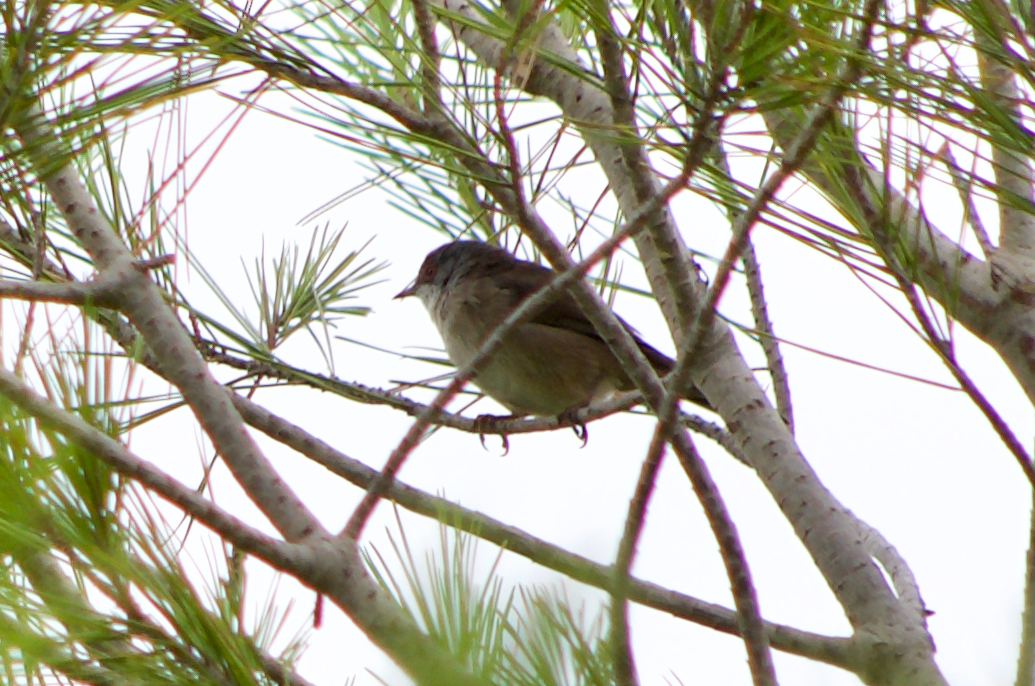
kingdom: Animalia
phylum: Chordata
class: Aves
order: Passeriformes
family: Sylviidae
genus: Curruca
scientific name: Curruca melanocephala
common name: Sardinian warbler
